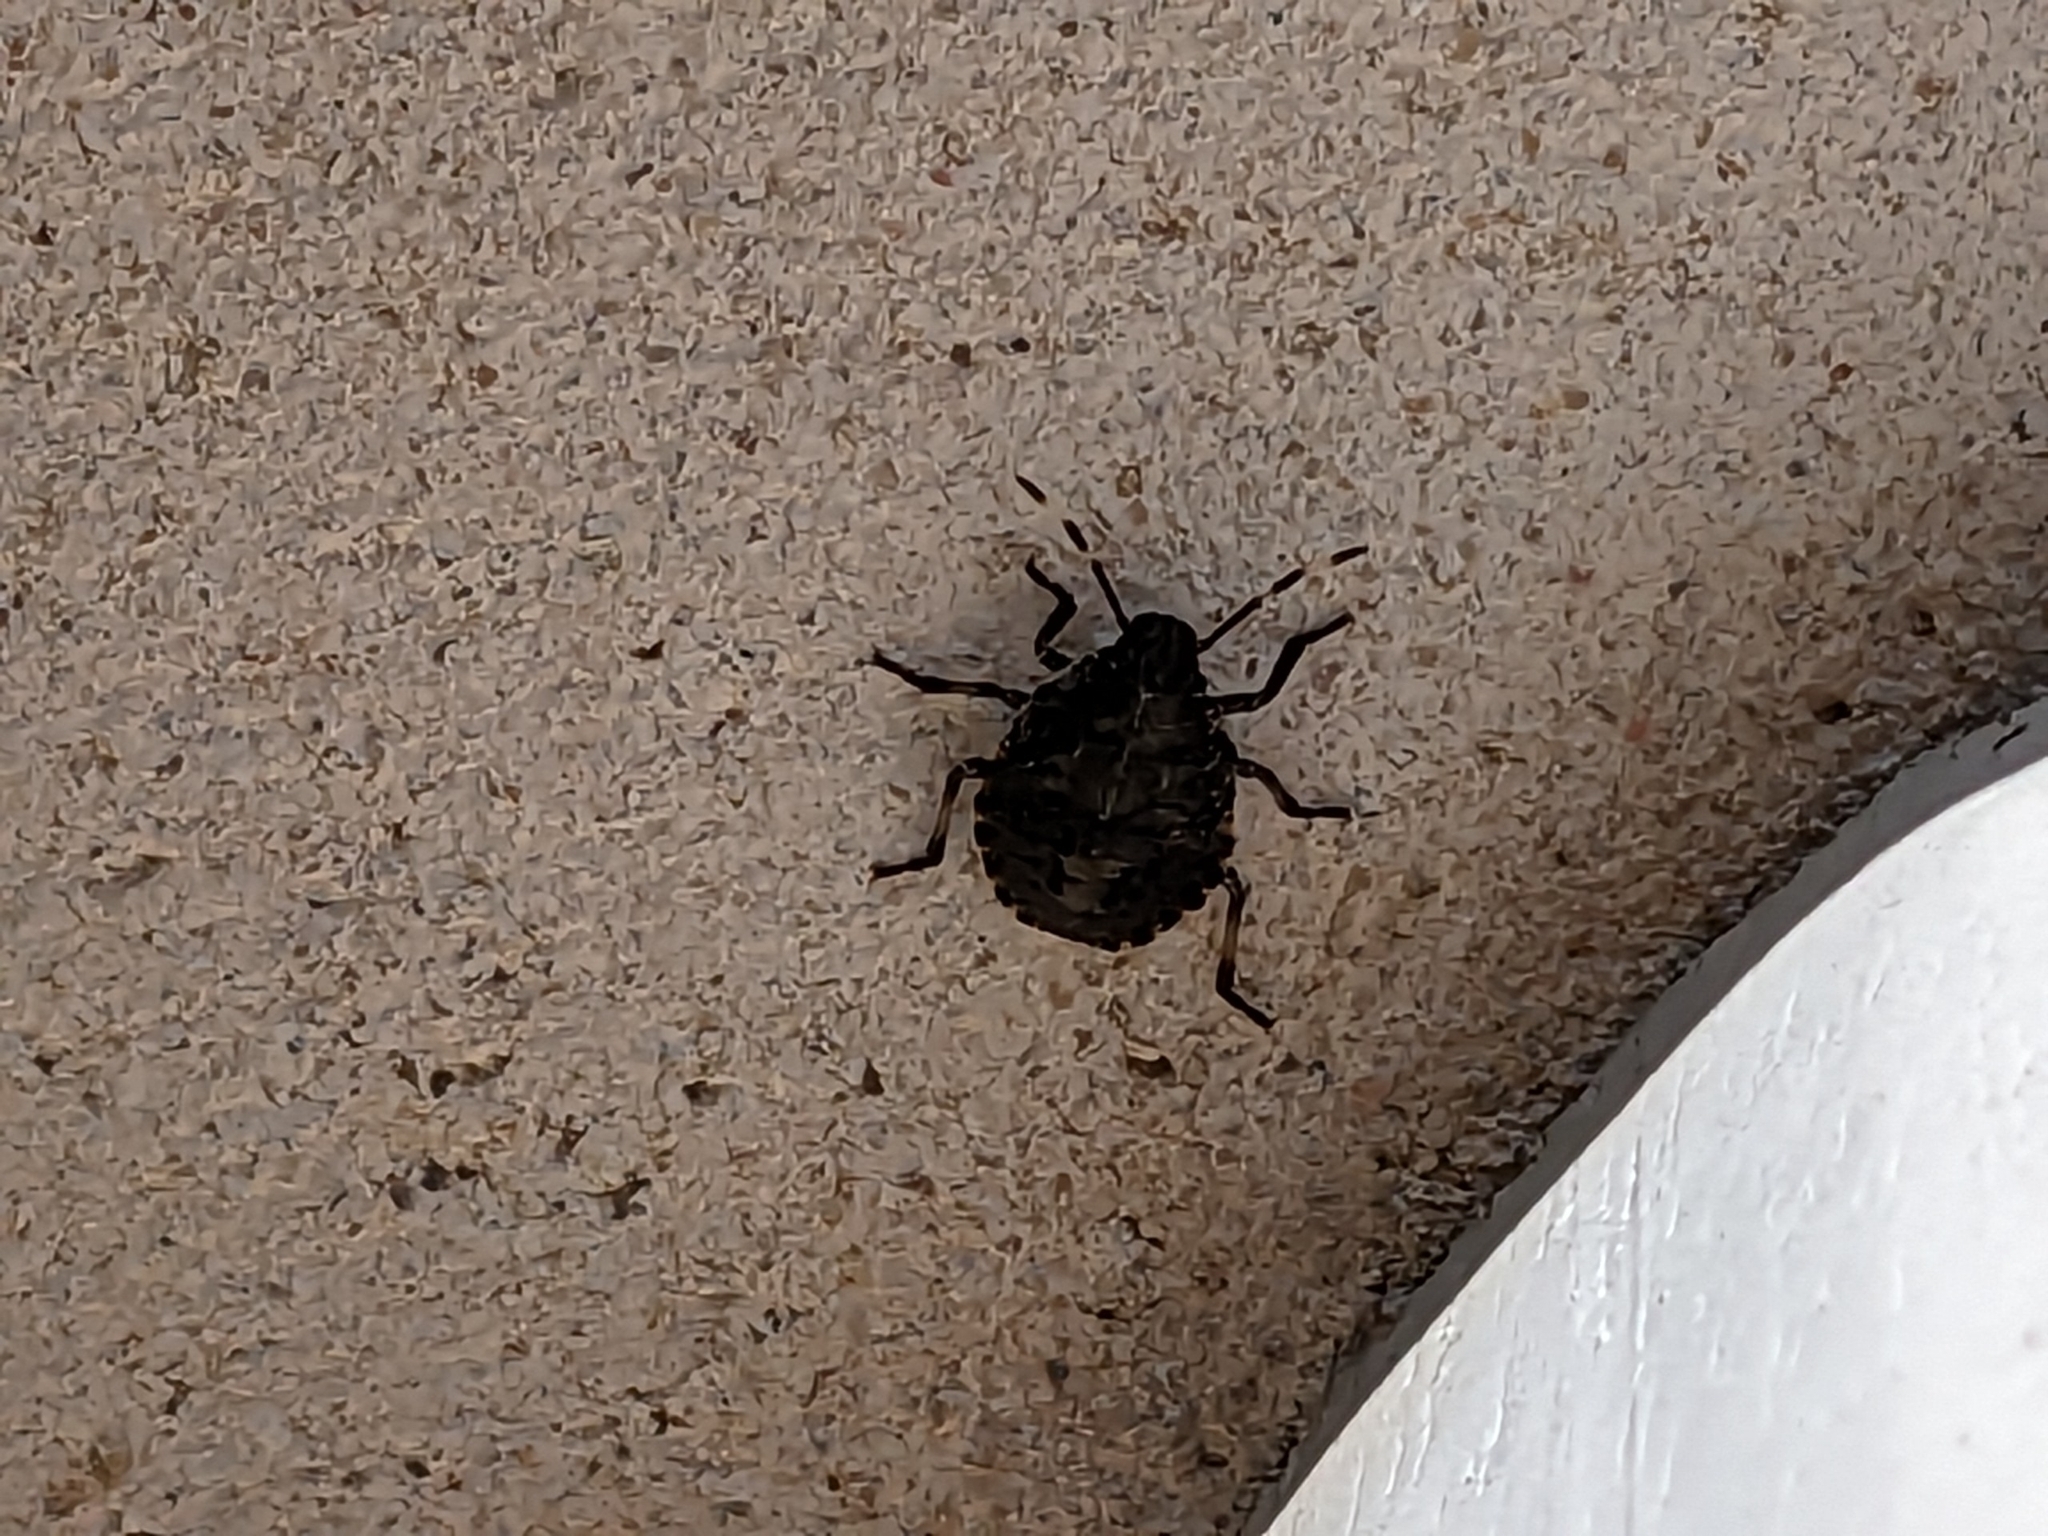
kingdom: Animalia
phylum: Arthropoda
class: Insecta
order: Hemiptera
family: Pentatomidae
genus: Rhaphigaster
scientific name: Rhaphigaster nebulosa
